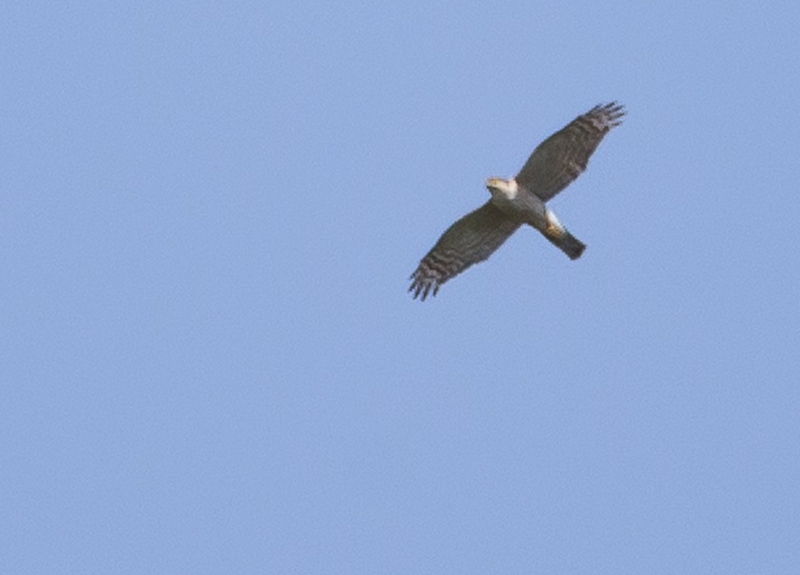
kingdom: Animalia
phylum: Chordata
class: Aves
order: Accipitriformes
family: Accipitridae
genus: Accipiter
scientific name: Accipiter nisus
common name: Eurasian sparrowhawk
